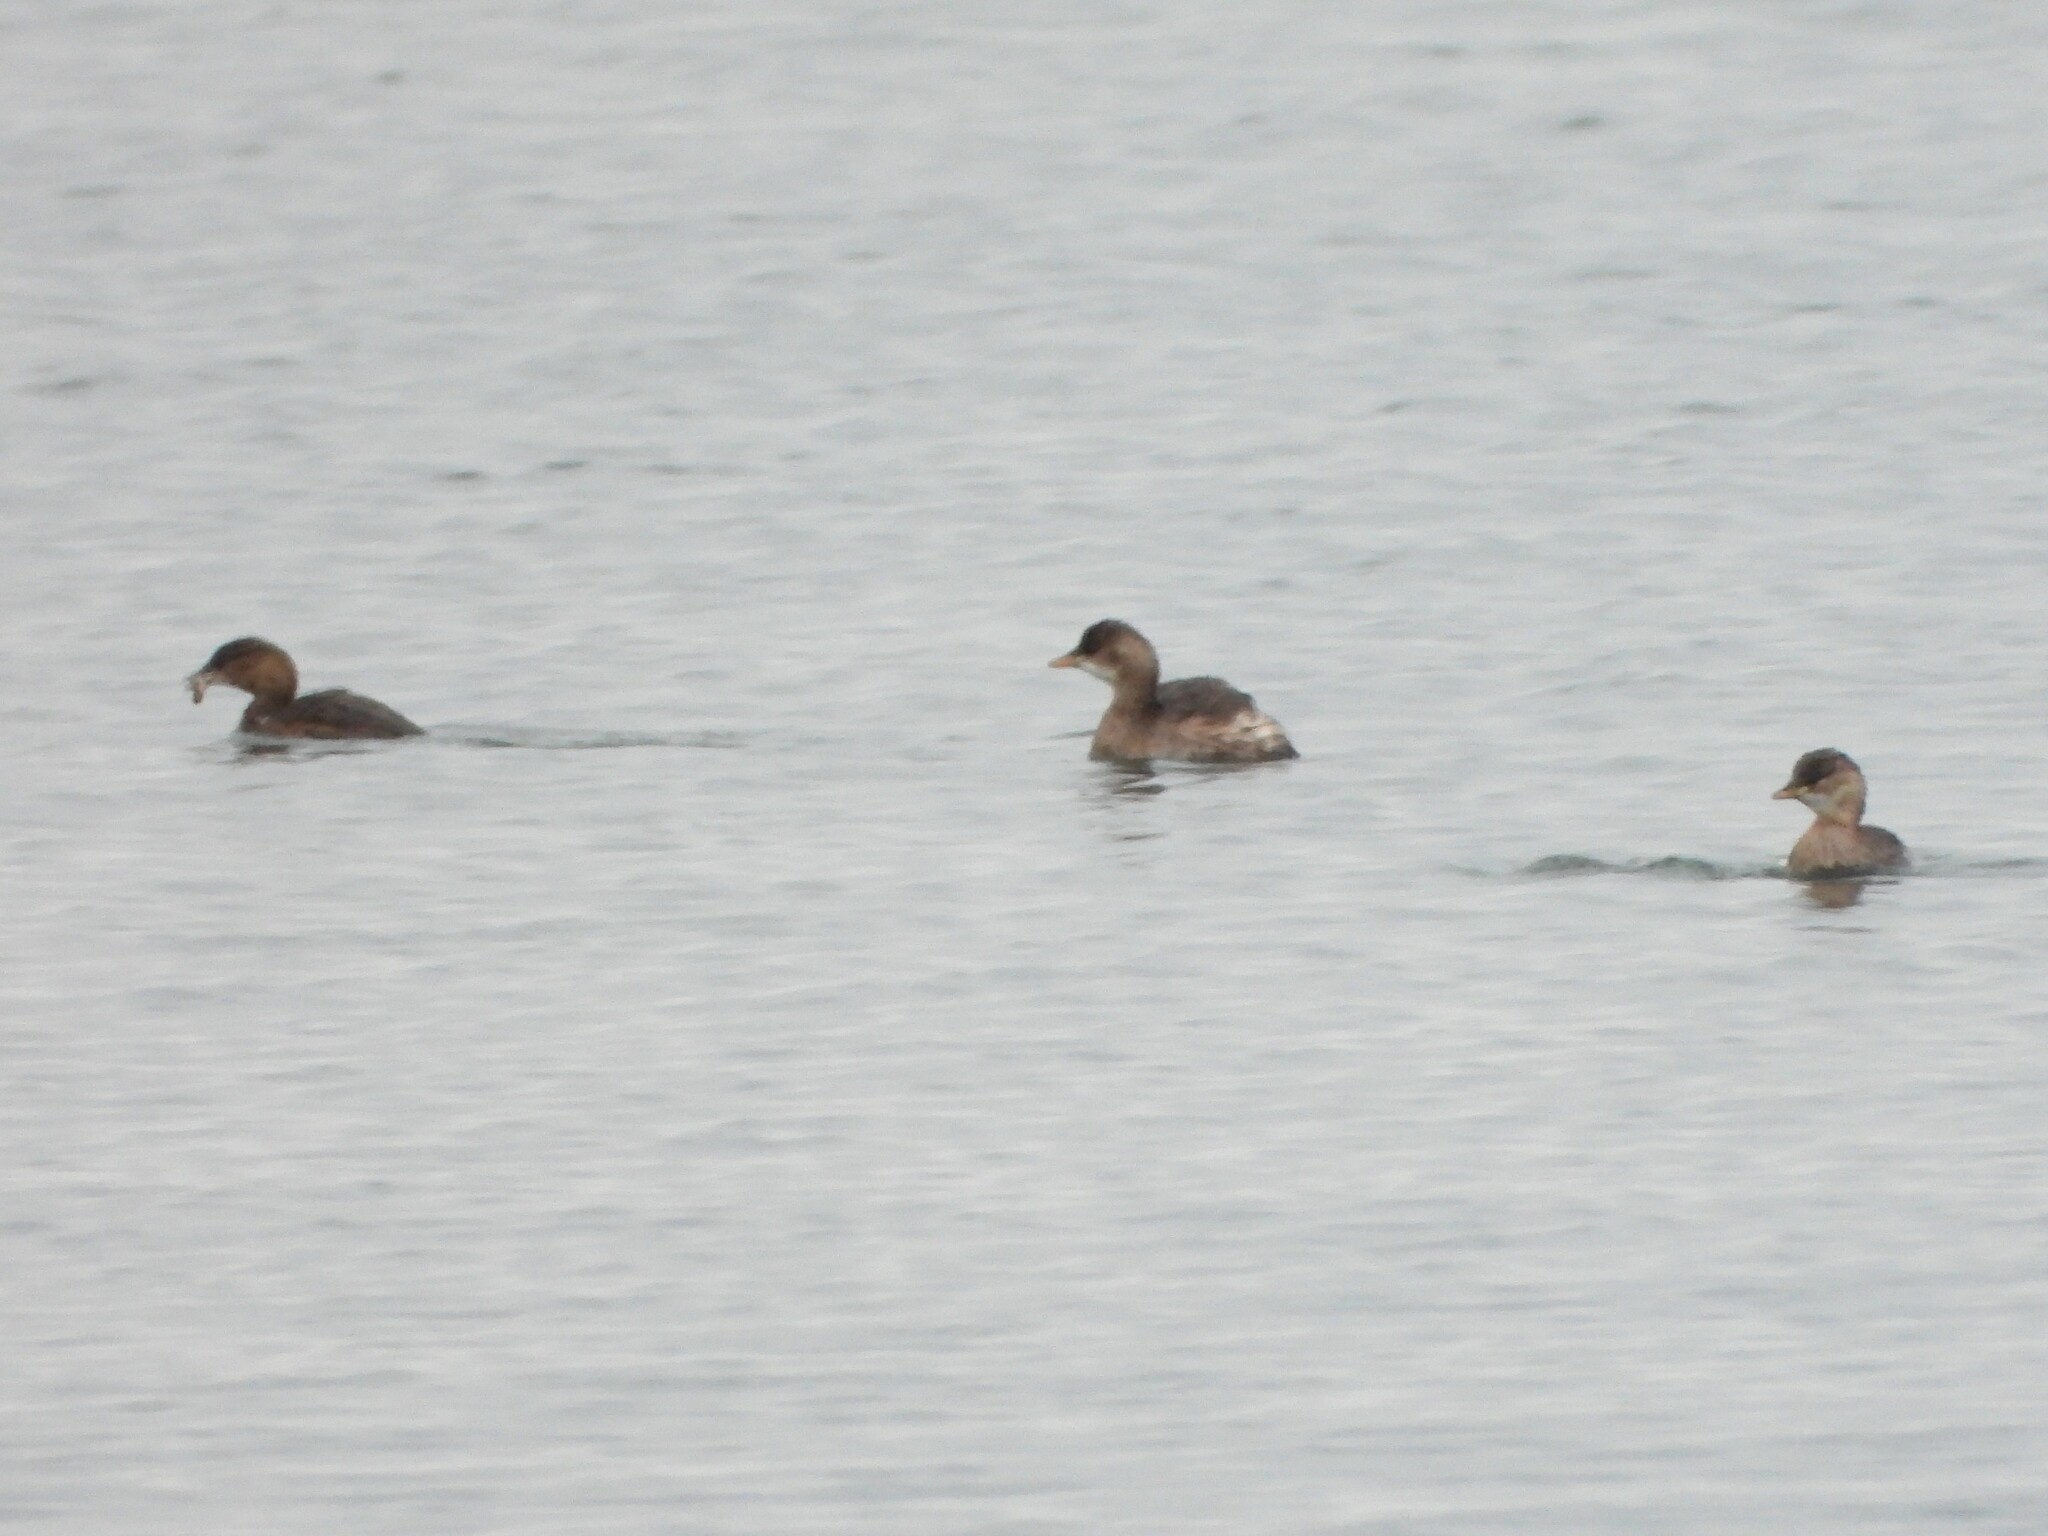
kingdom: Animalia
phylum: Chordata
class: Aves
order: Podicipediformes
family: Podicipedidae
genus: Tachybaptus
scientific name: Tachybaptus ruficollis
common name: Little grebe
